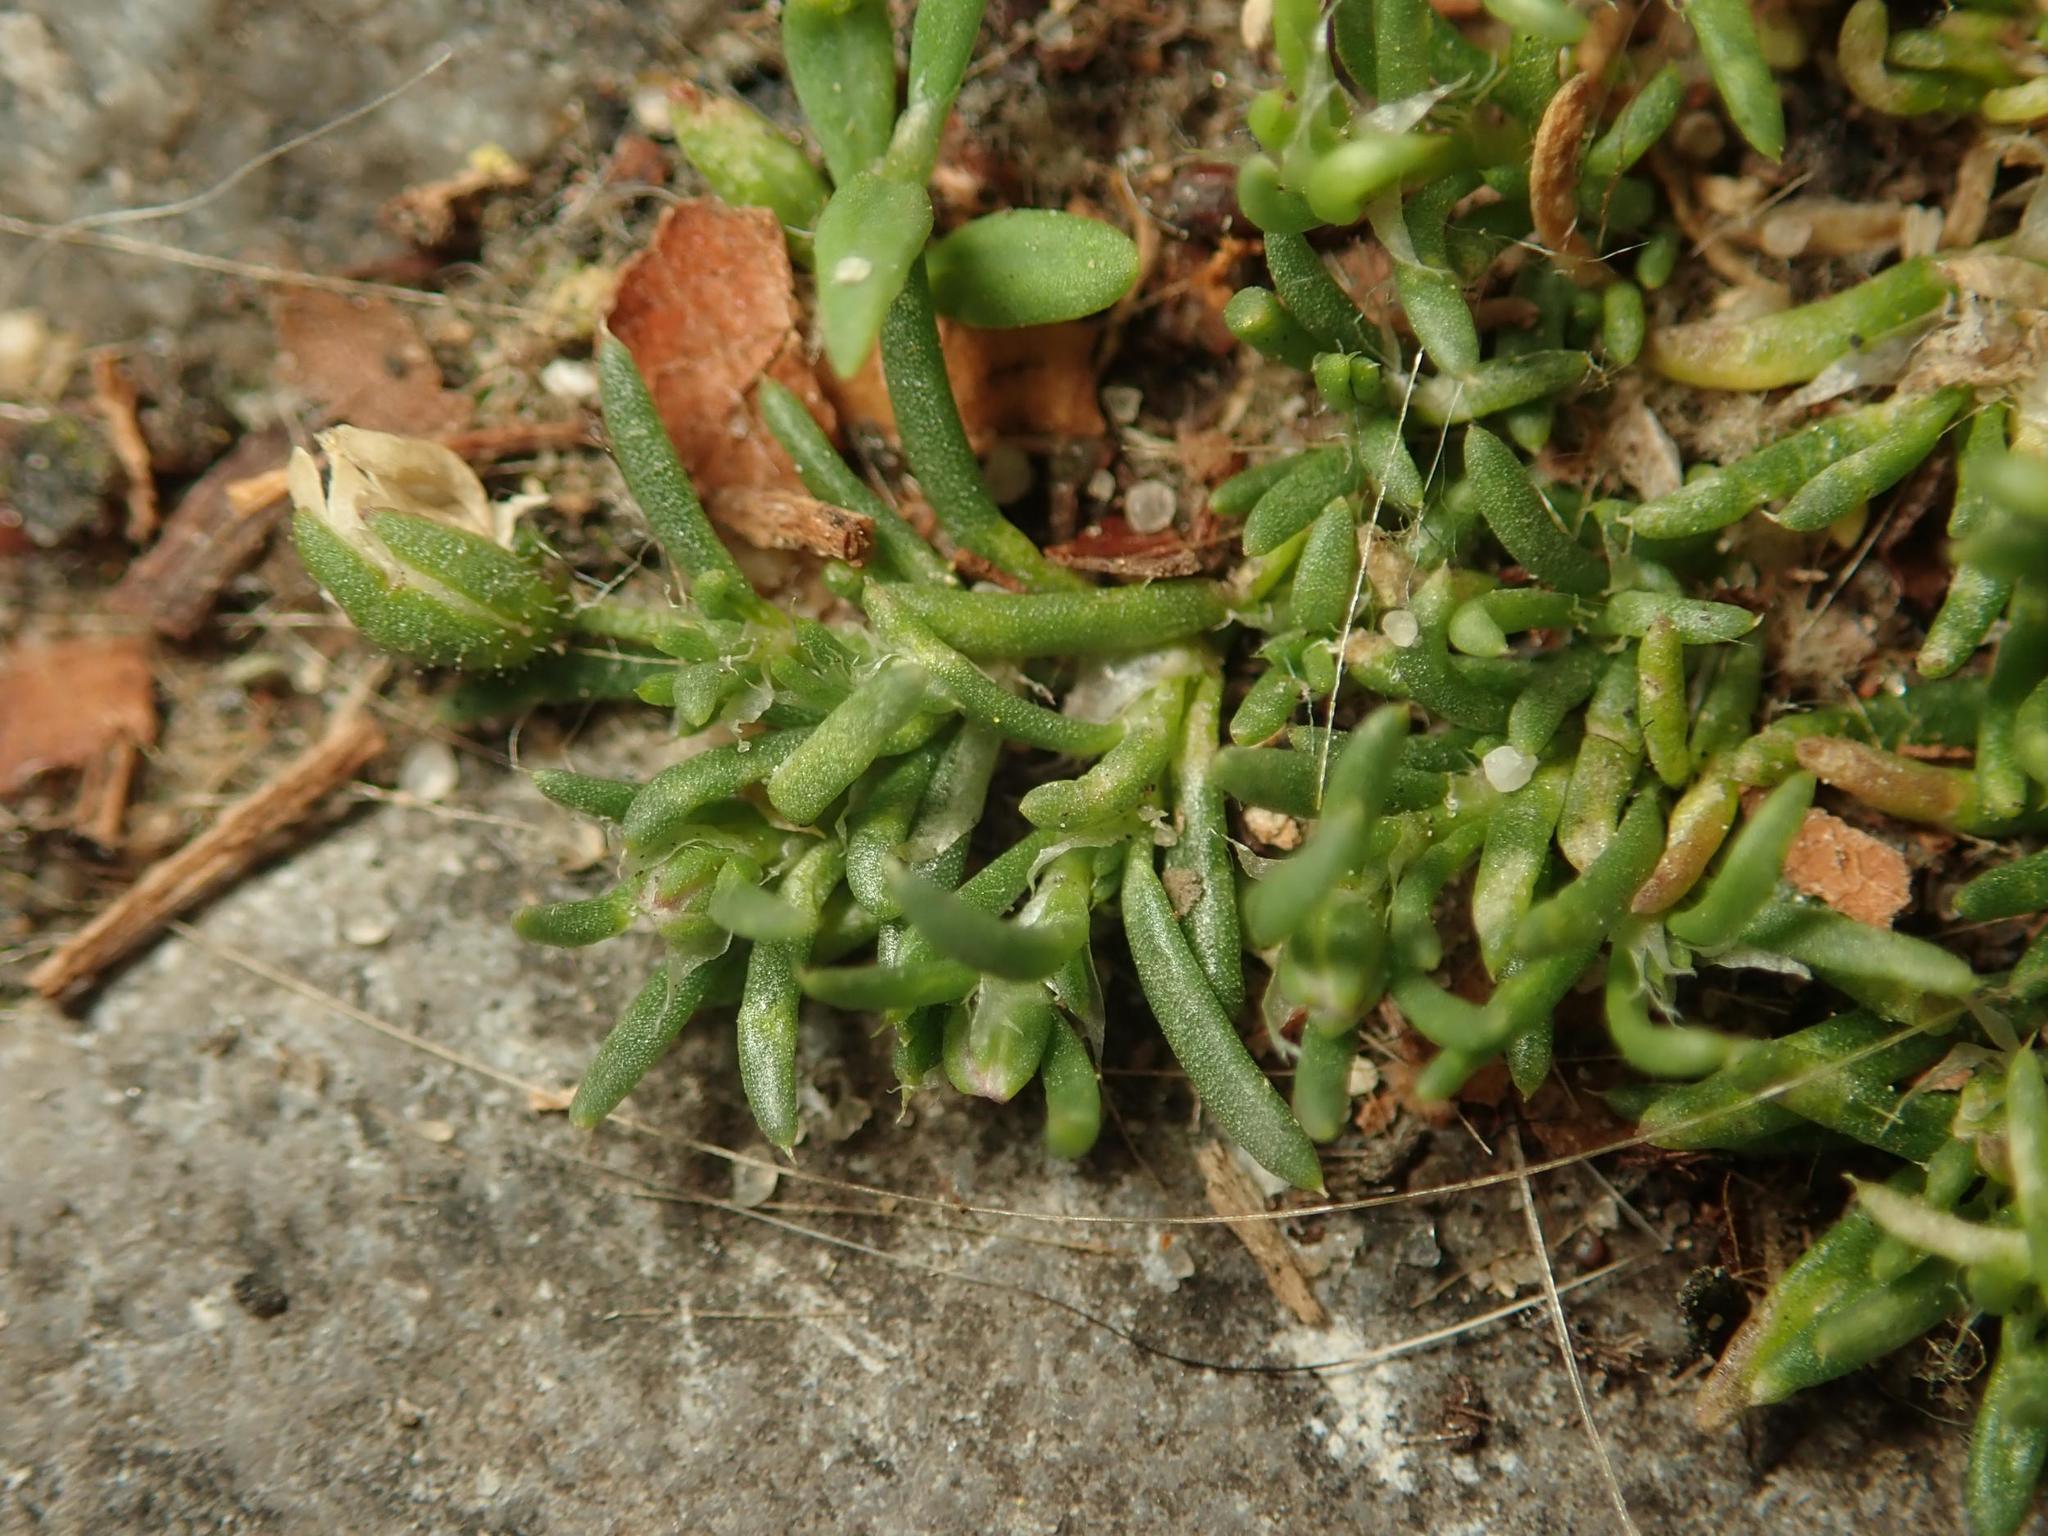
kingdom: Plantae
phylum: Tracheophyta
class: Magnoliopsida
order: Caryophyllales
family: Caryophyllaceae
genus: Spergularia
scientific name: Spergularia rubra
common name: Red sand-spurrey
